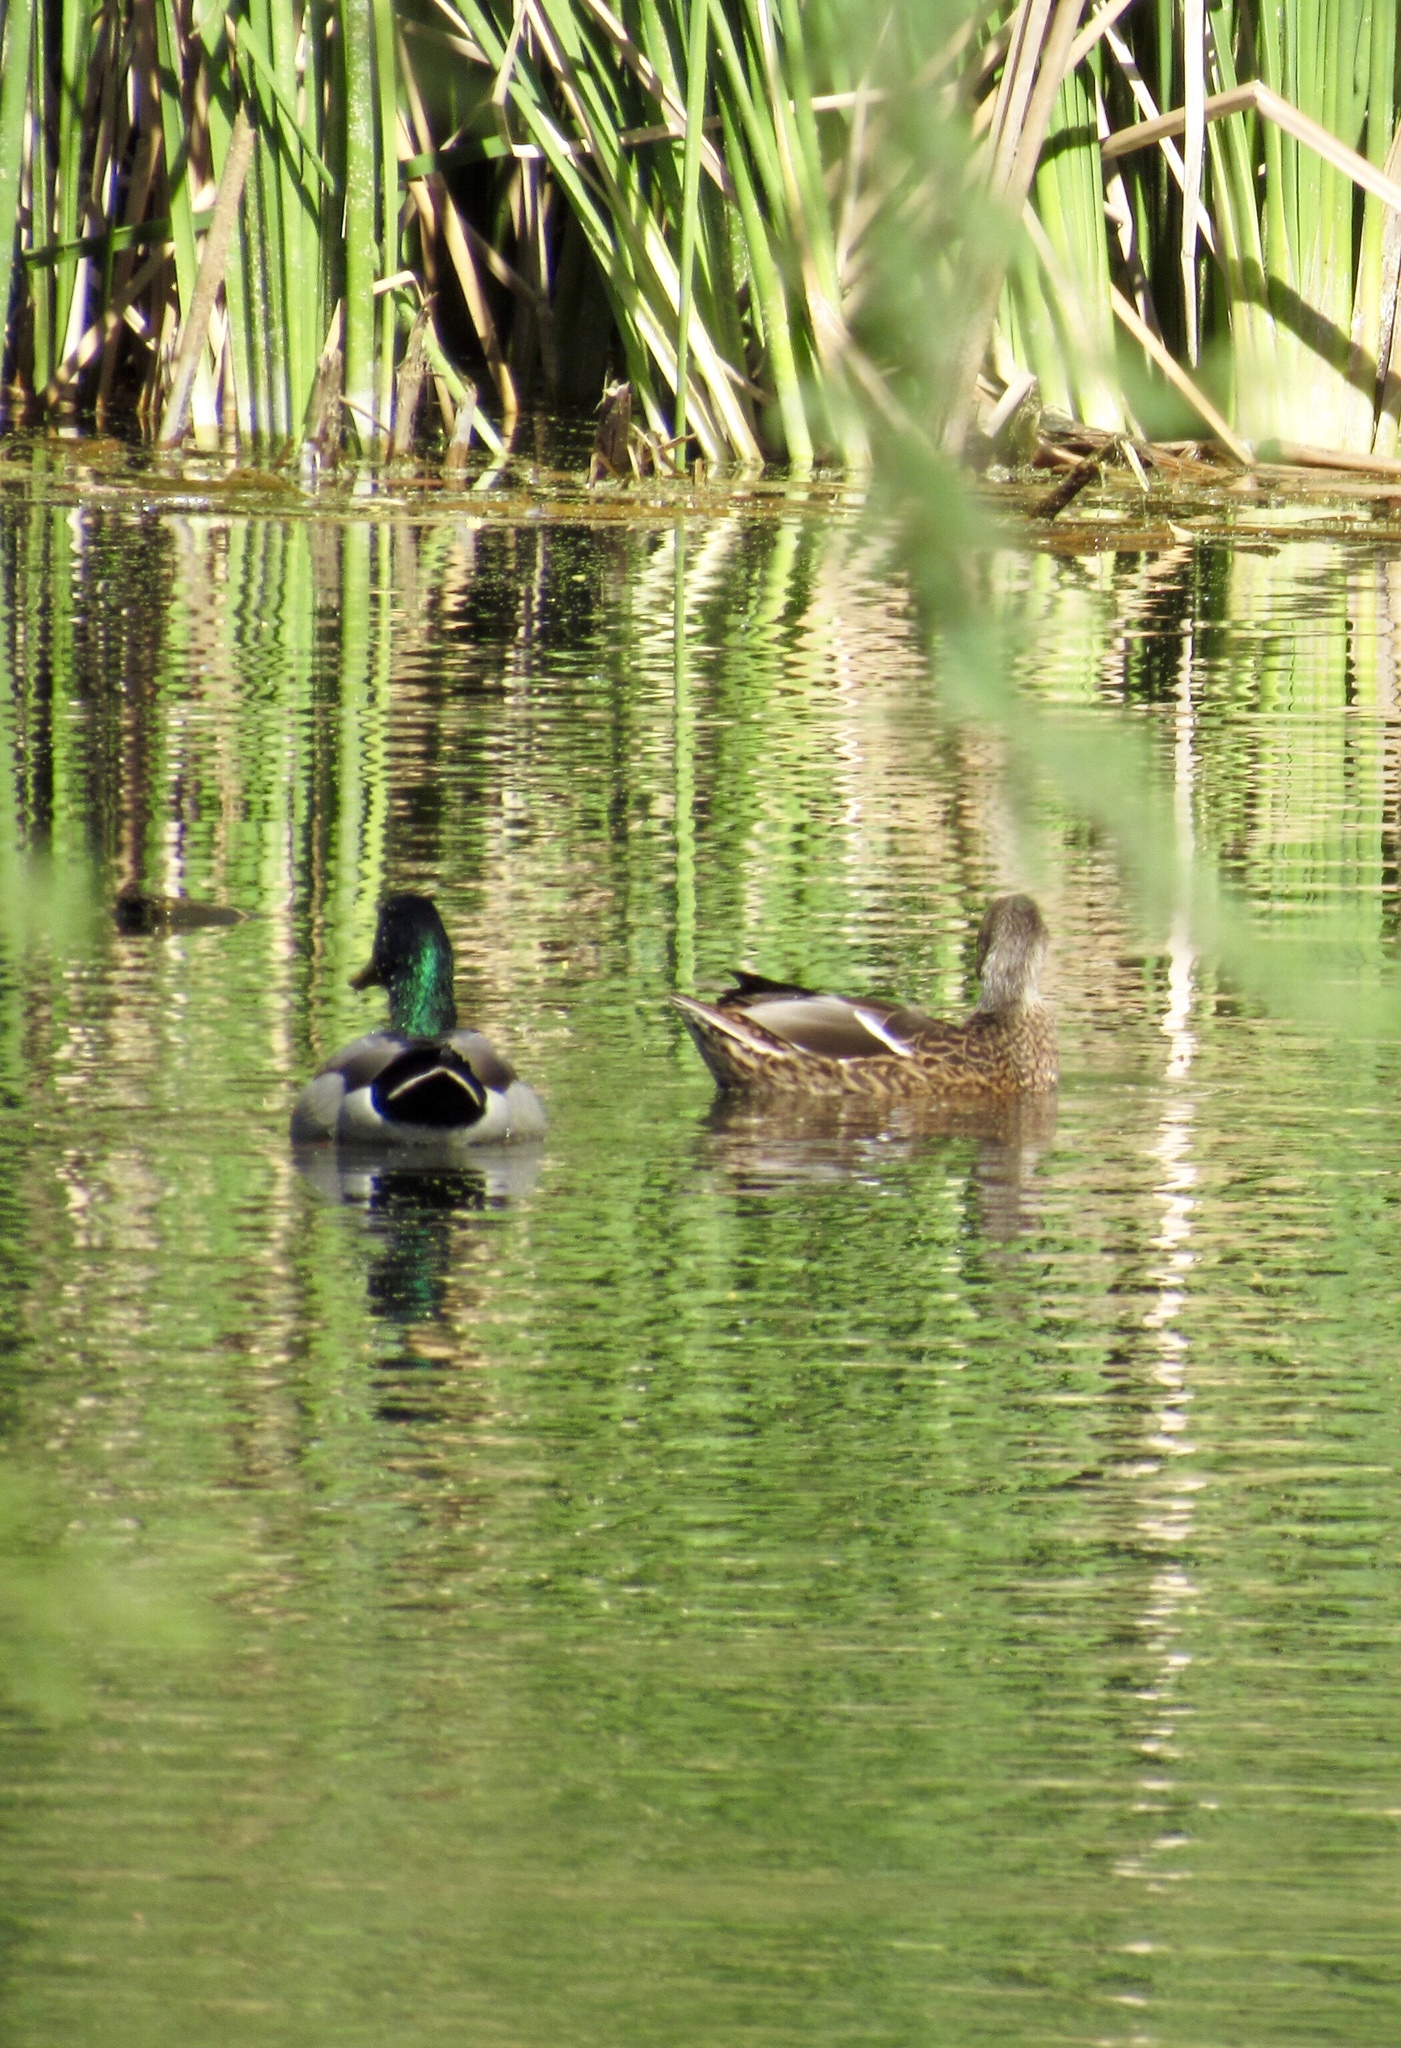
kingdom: Animalia
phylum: Chordata
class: Aves
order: Anseriformes
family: Anatidae
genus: Anas
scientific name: Anas platyrhynchos
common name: Mallard
